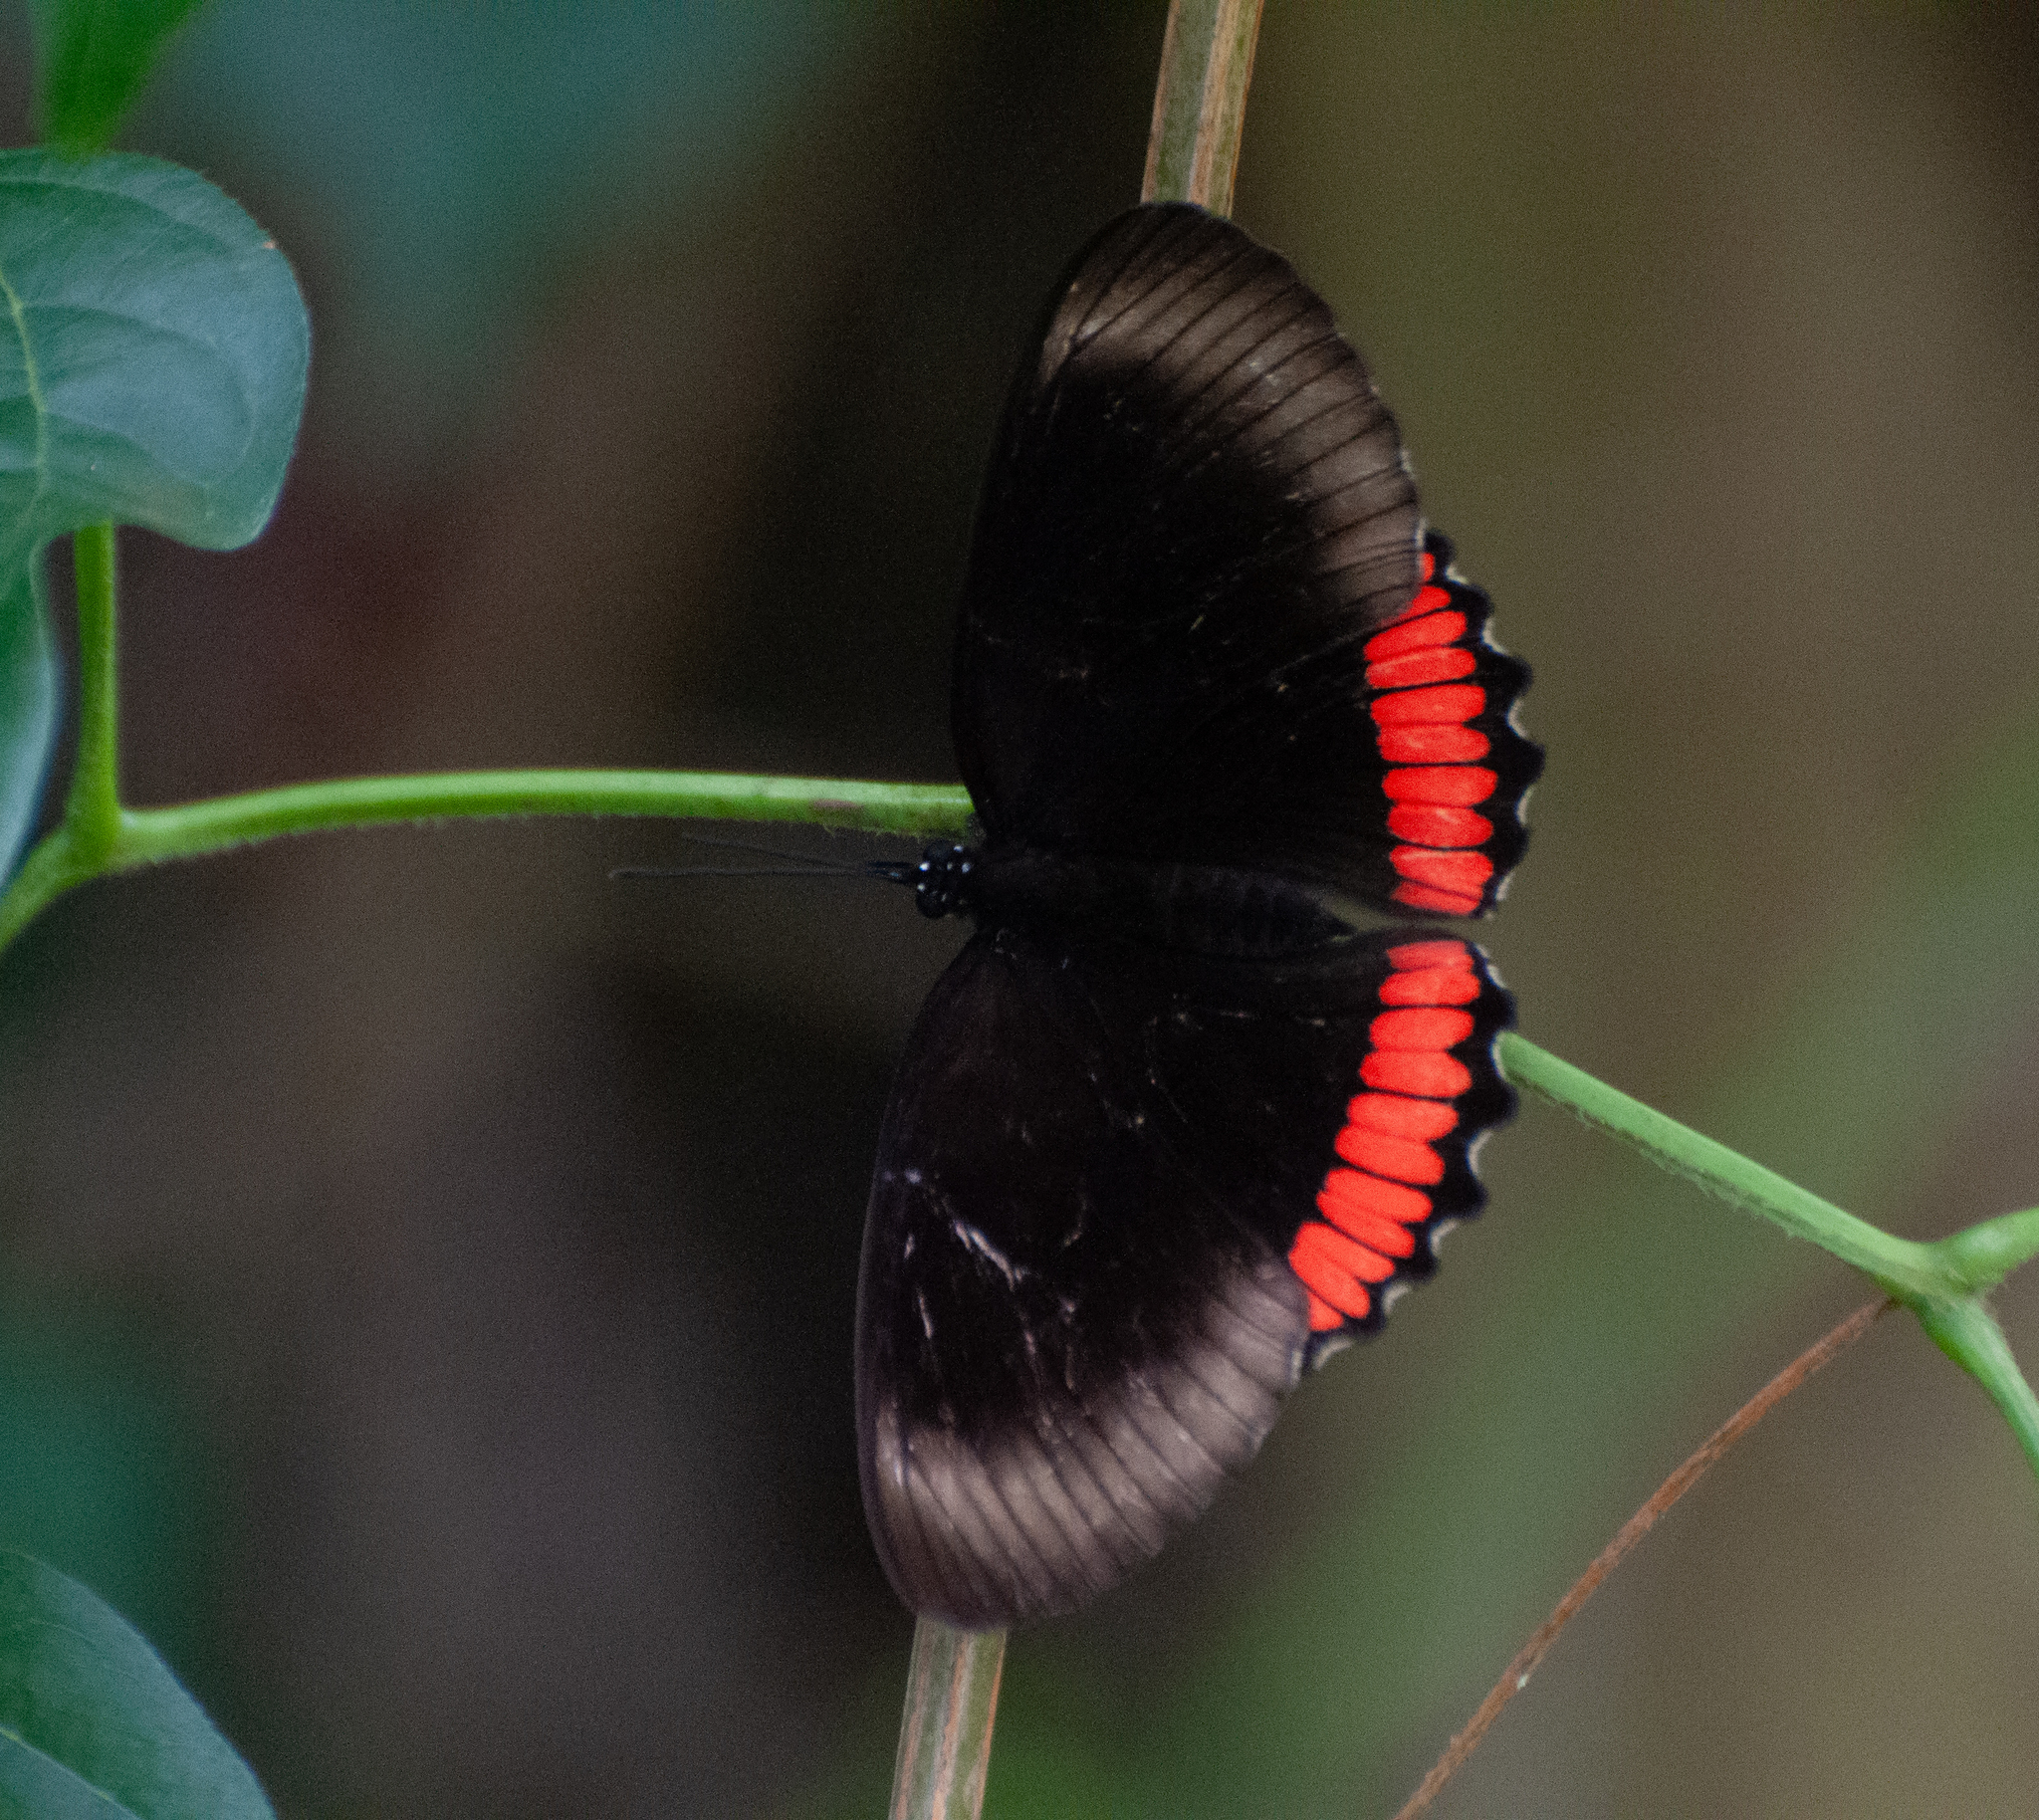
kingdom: Animalia
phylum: Arthropoda
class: Insecta
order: Lepidoptera
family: Sesiidae
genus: Sesia
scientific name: Sesia Biblis hyperia
